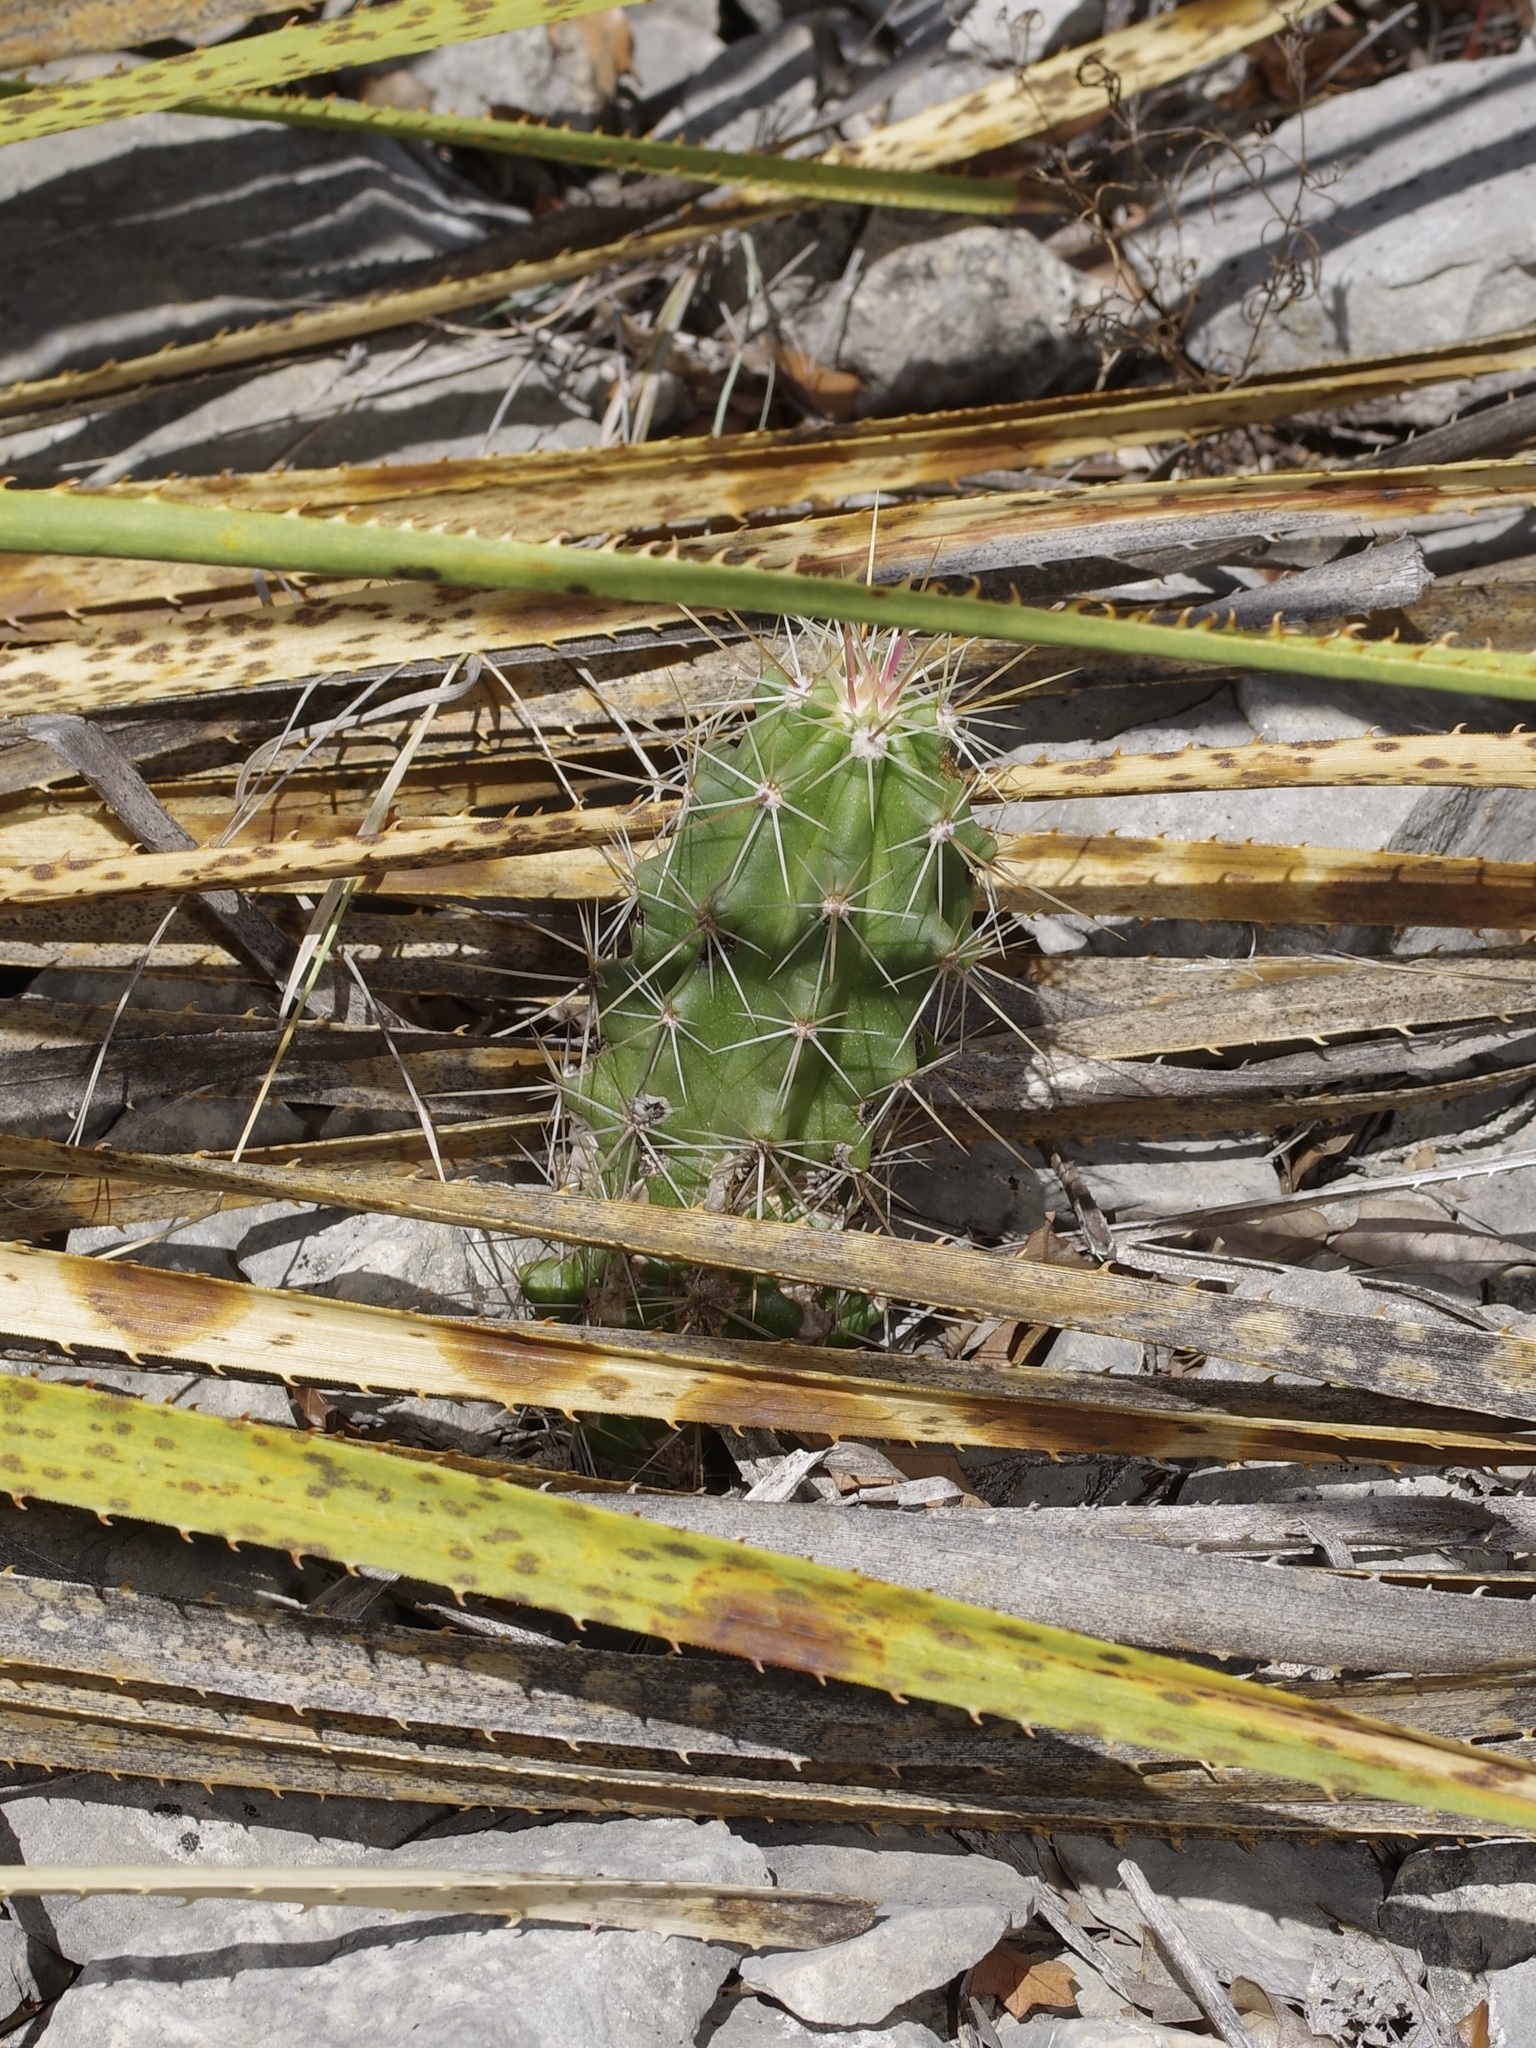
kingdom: Plantae
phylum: Tracheophyta
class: Magnoliopsida
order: Caryophyllales
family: Cactaceae
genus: Echinocereus
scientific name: Echinocereus enneacanthus
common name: Pitaya
